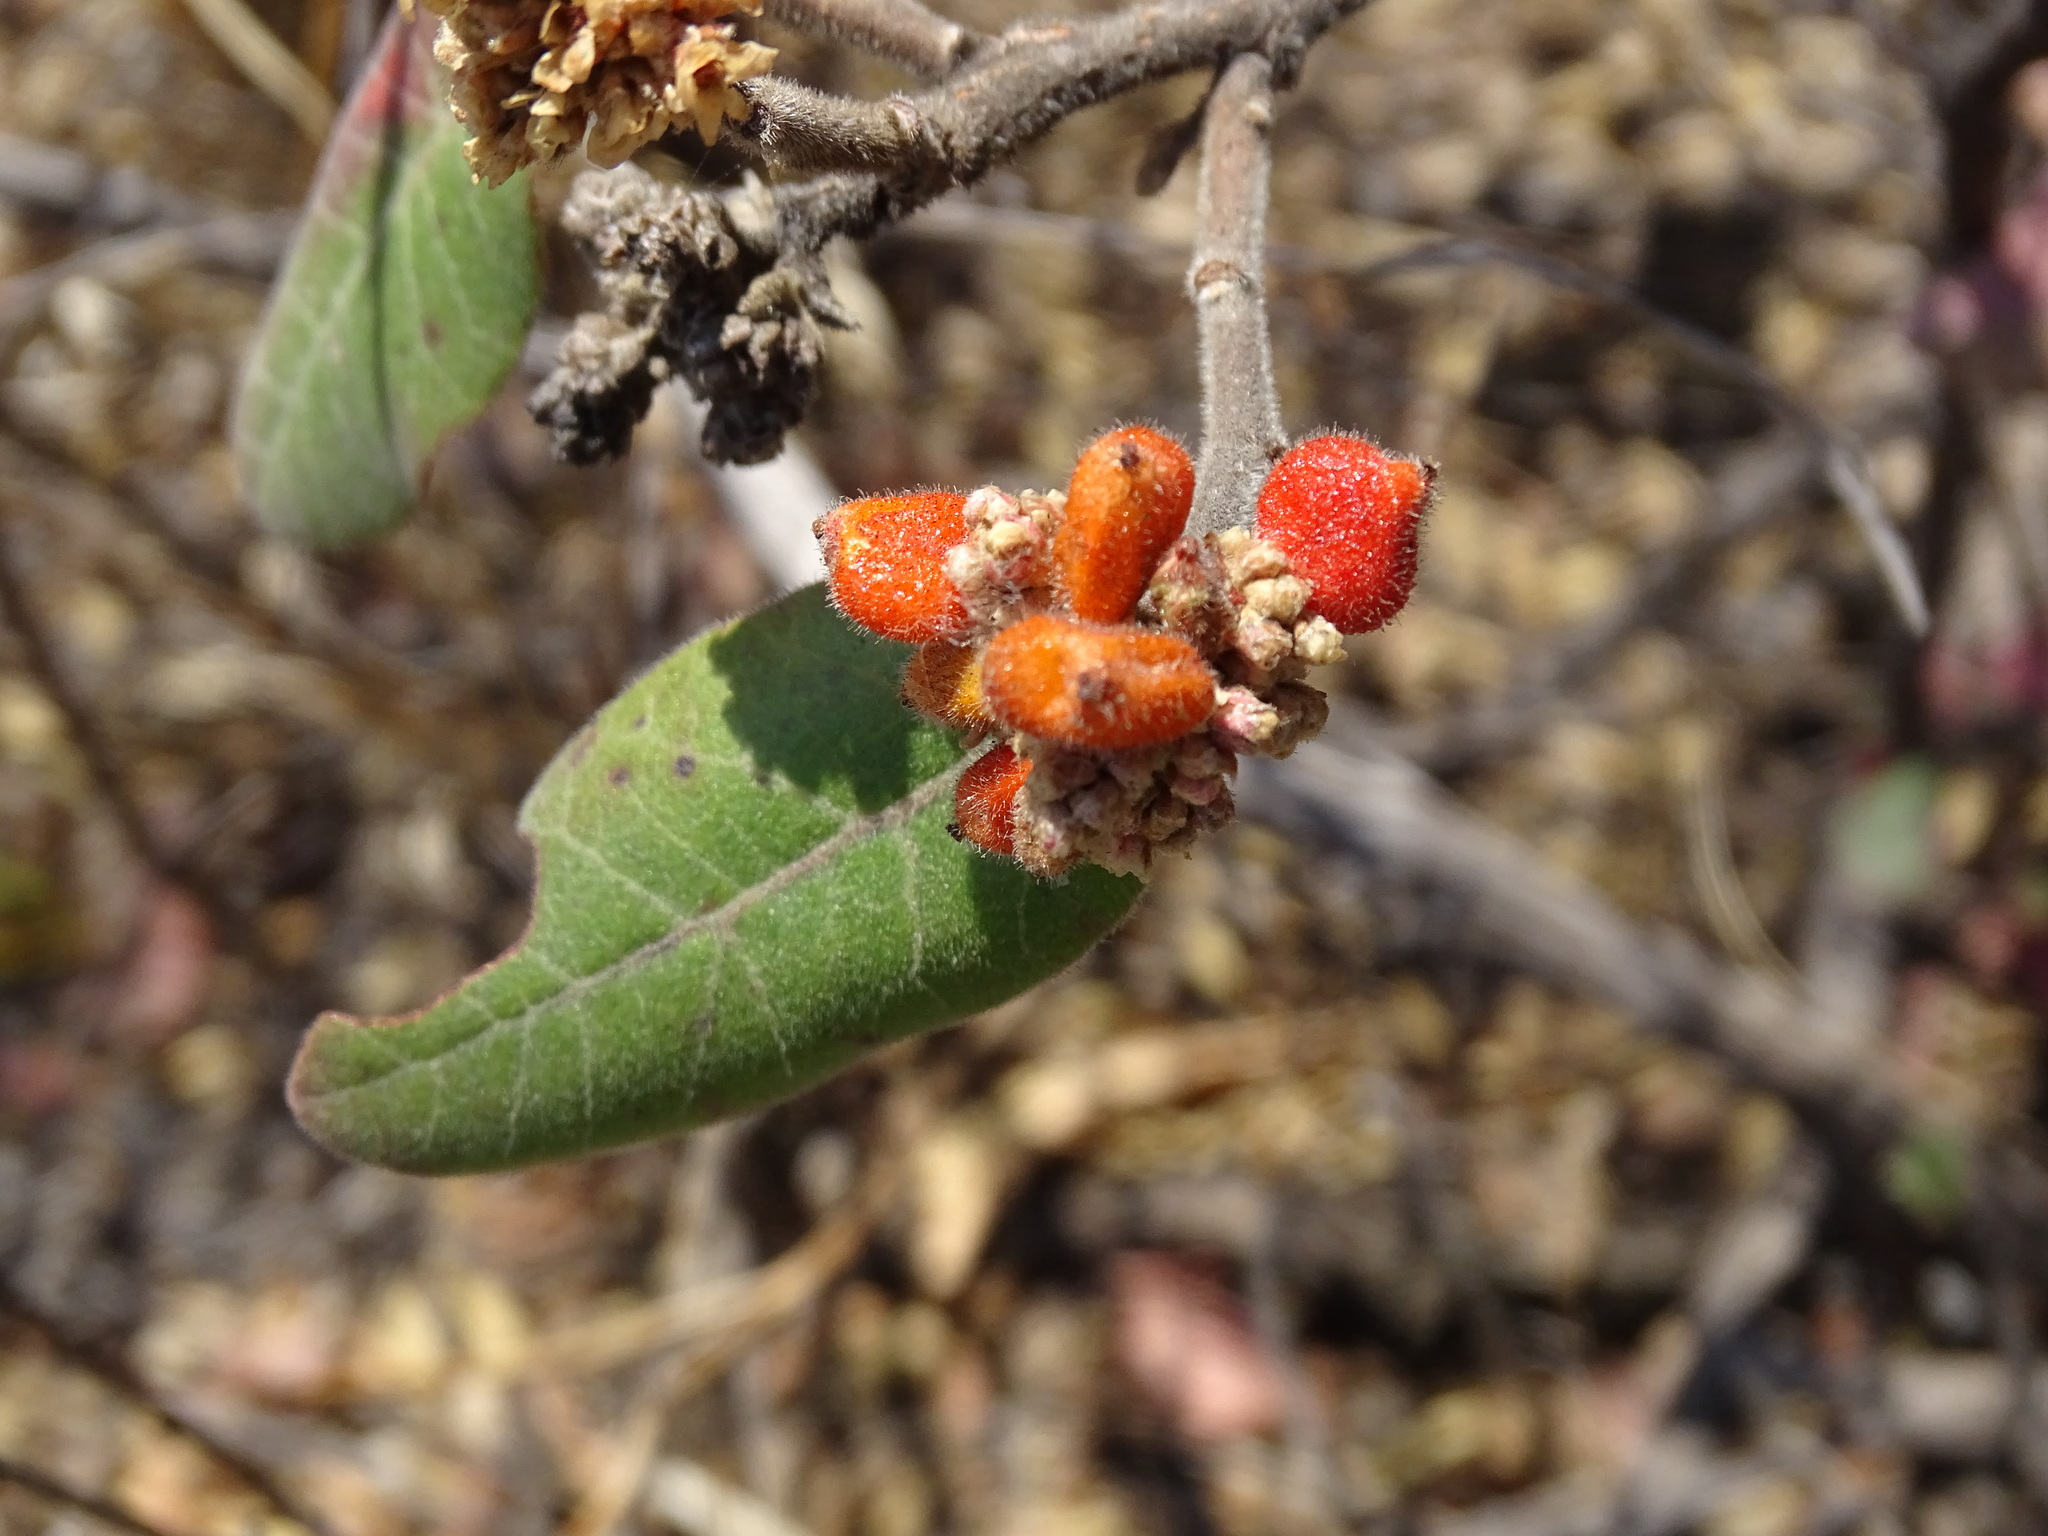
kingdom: Plantae
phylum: Tracheophyta
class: Magnoliopsida
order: Sapindales
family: Anacardiaceae
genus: Rhus
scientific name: Rhus standleyi
